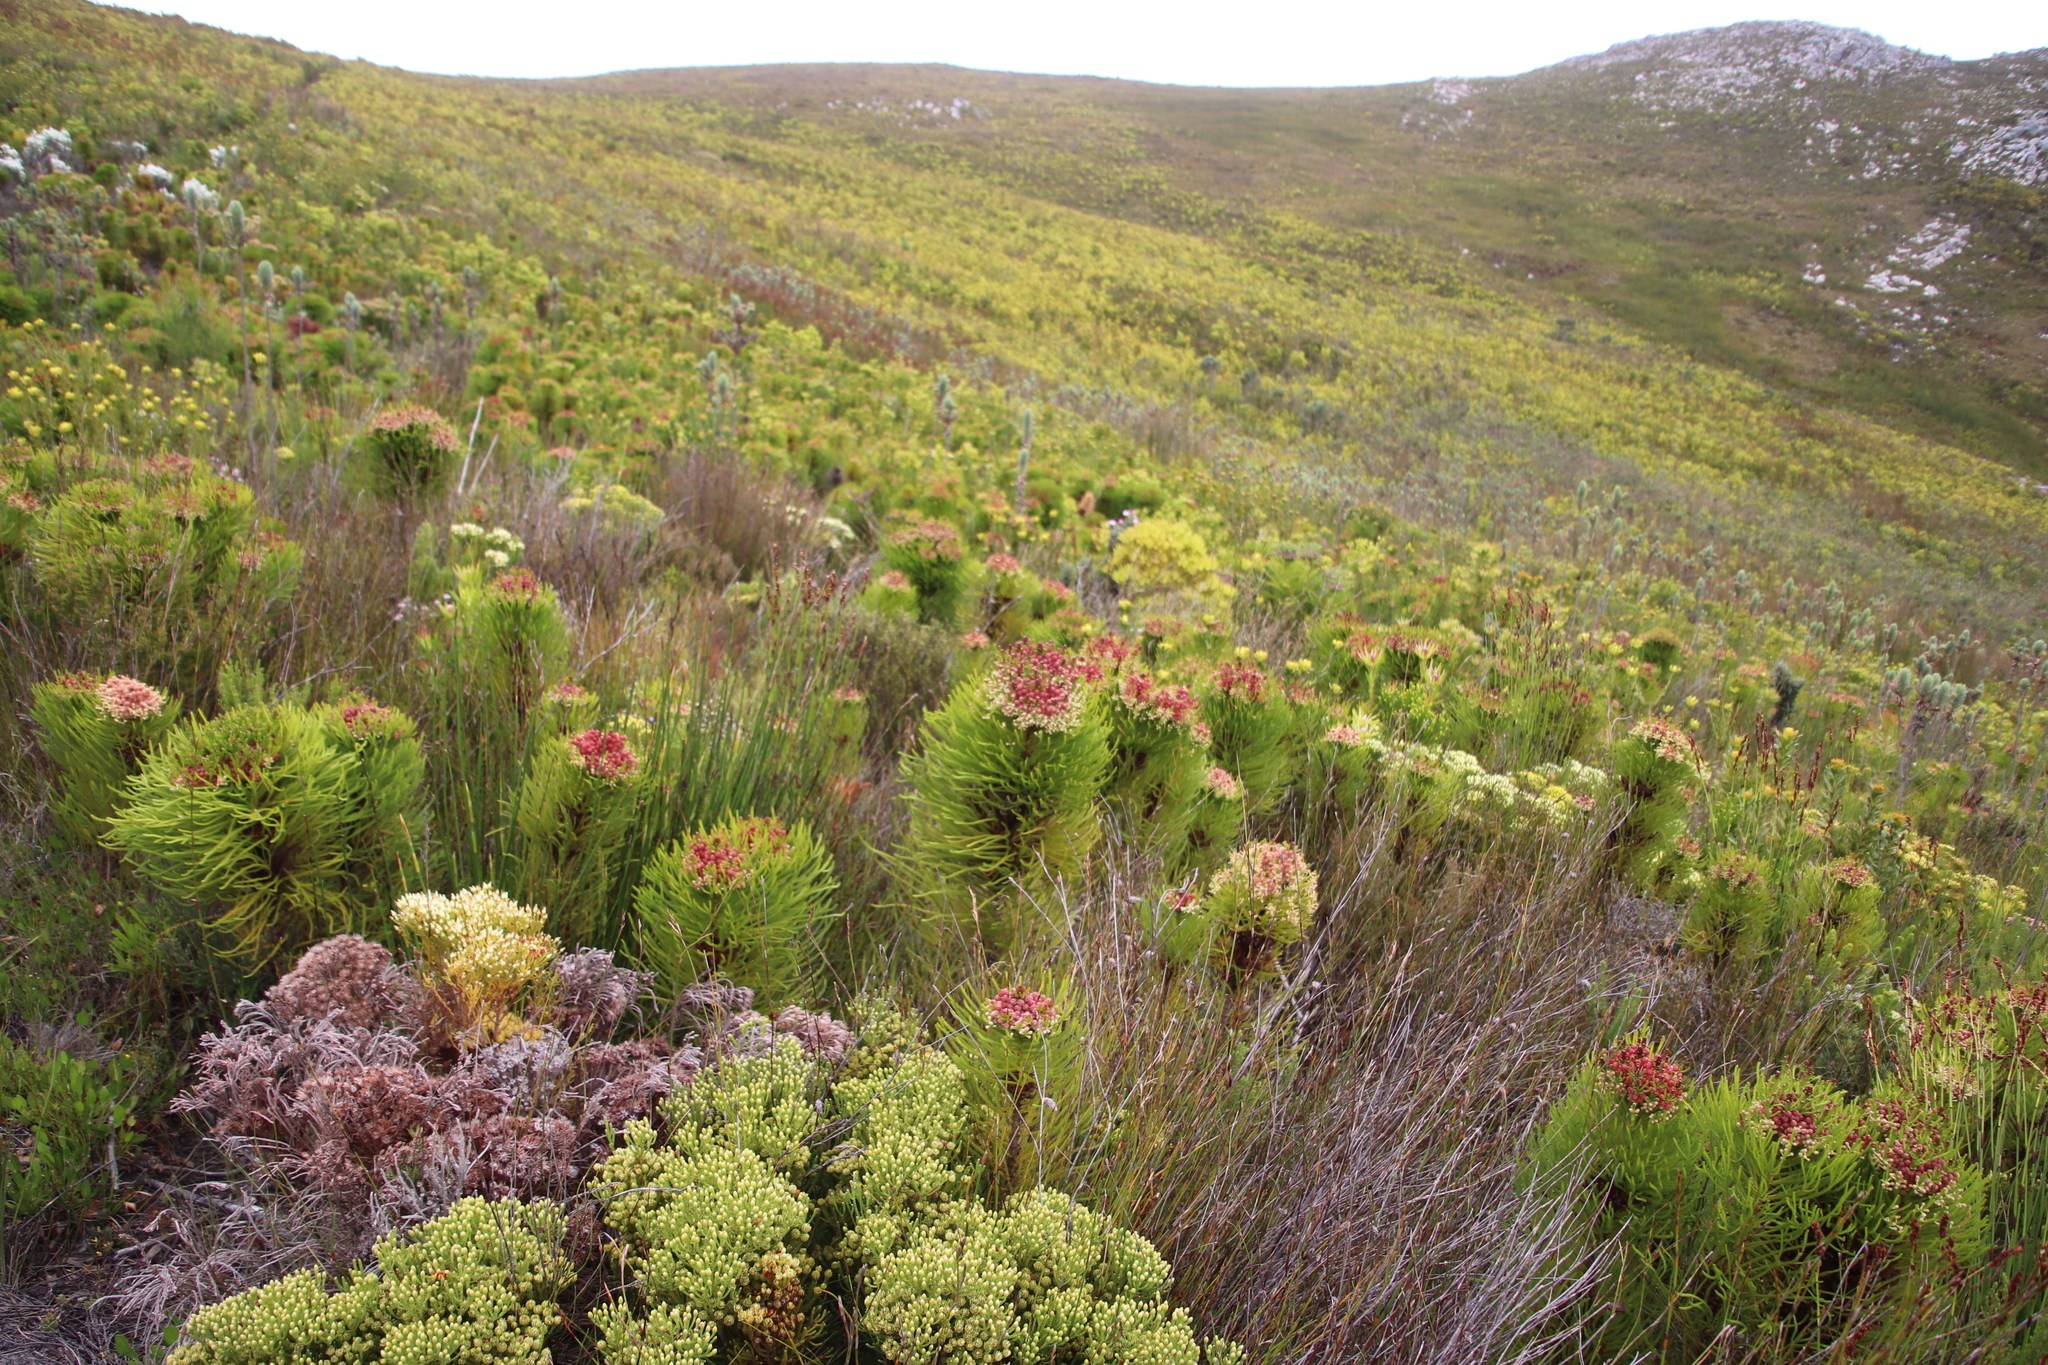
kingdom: Plantae
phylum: Tracheophyta
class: Magnoliopsida
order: Bruniales
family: Bruniaceae
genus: Berzelia
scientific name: Berzelia alopecurioides
